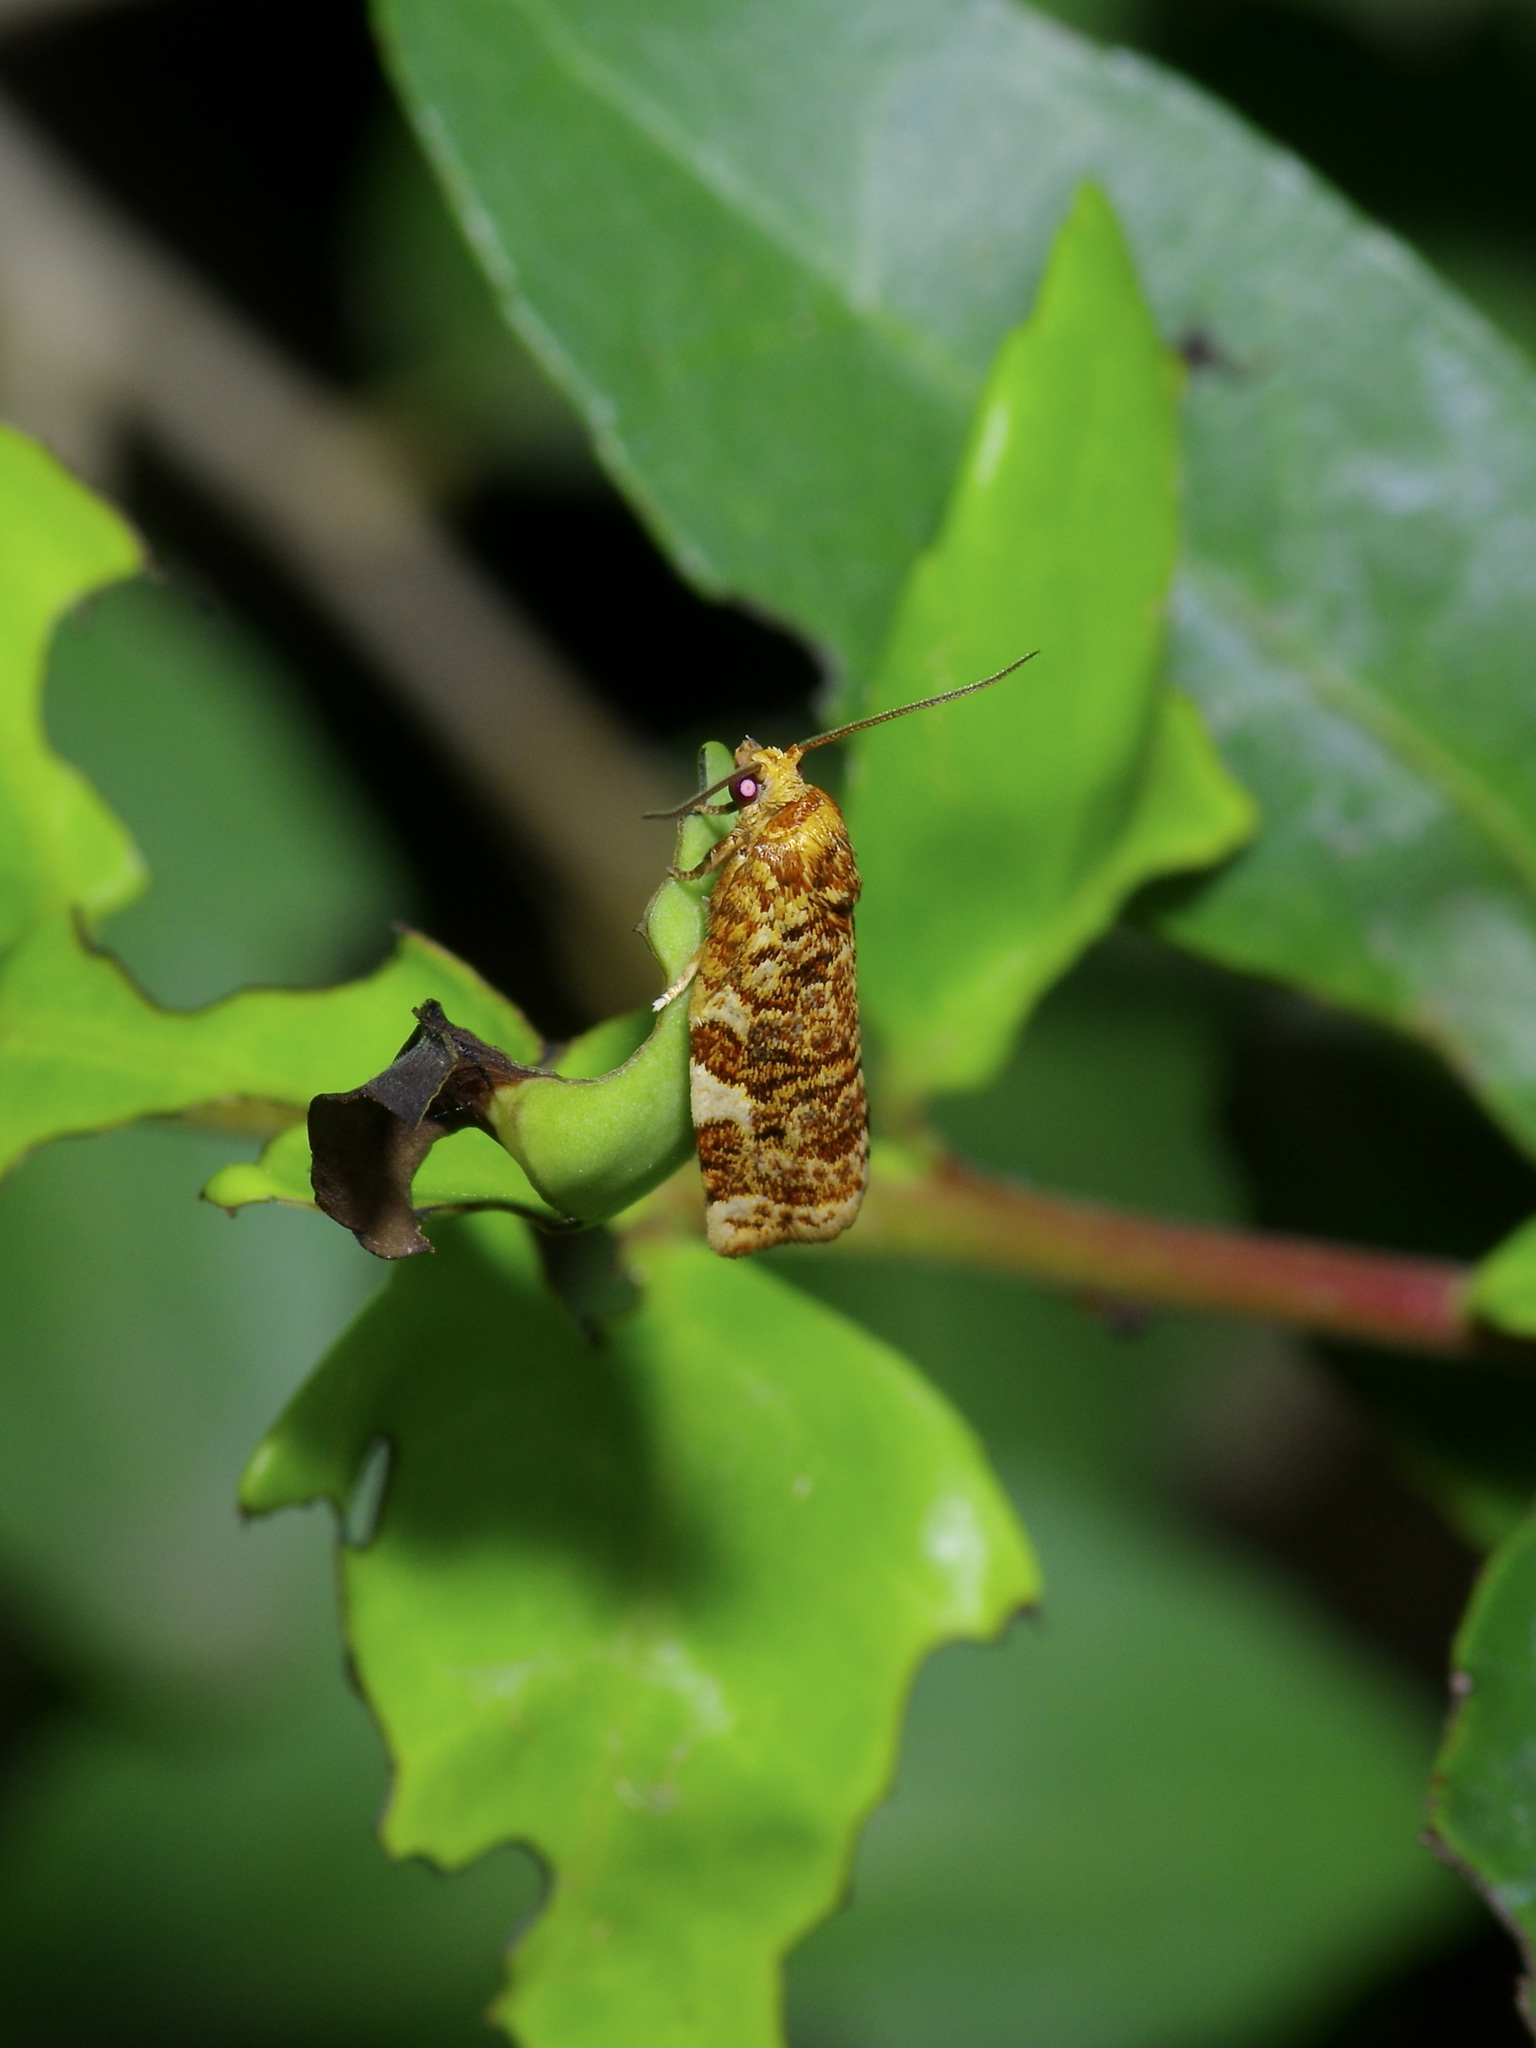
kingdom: Animalia
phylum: Arthropoda
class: Insecta
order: Lepidoptera
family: Tortricidae
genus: Archips
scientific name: Archips argyrospila
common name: Fruit-tree leafroller moth
